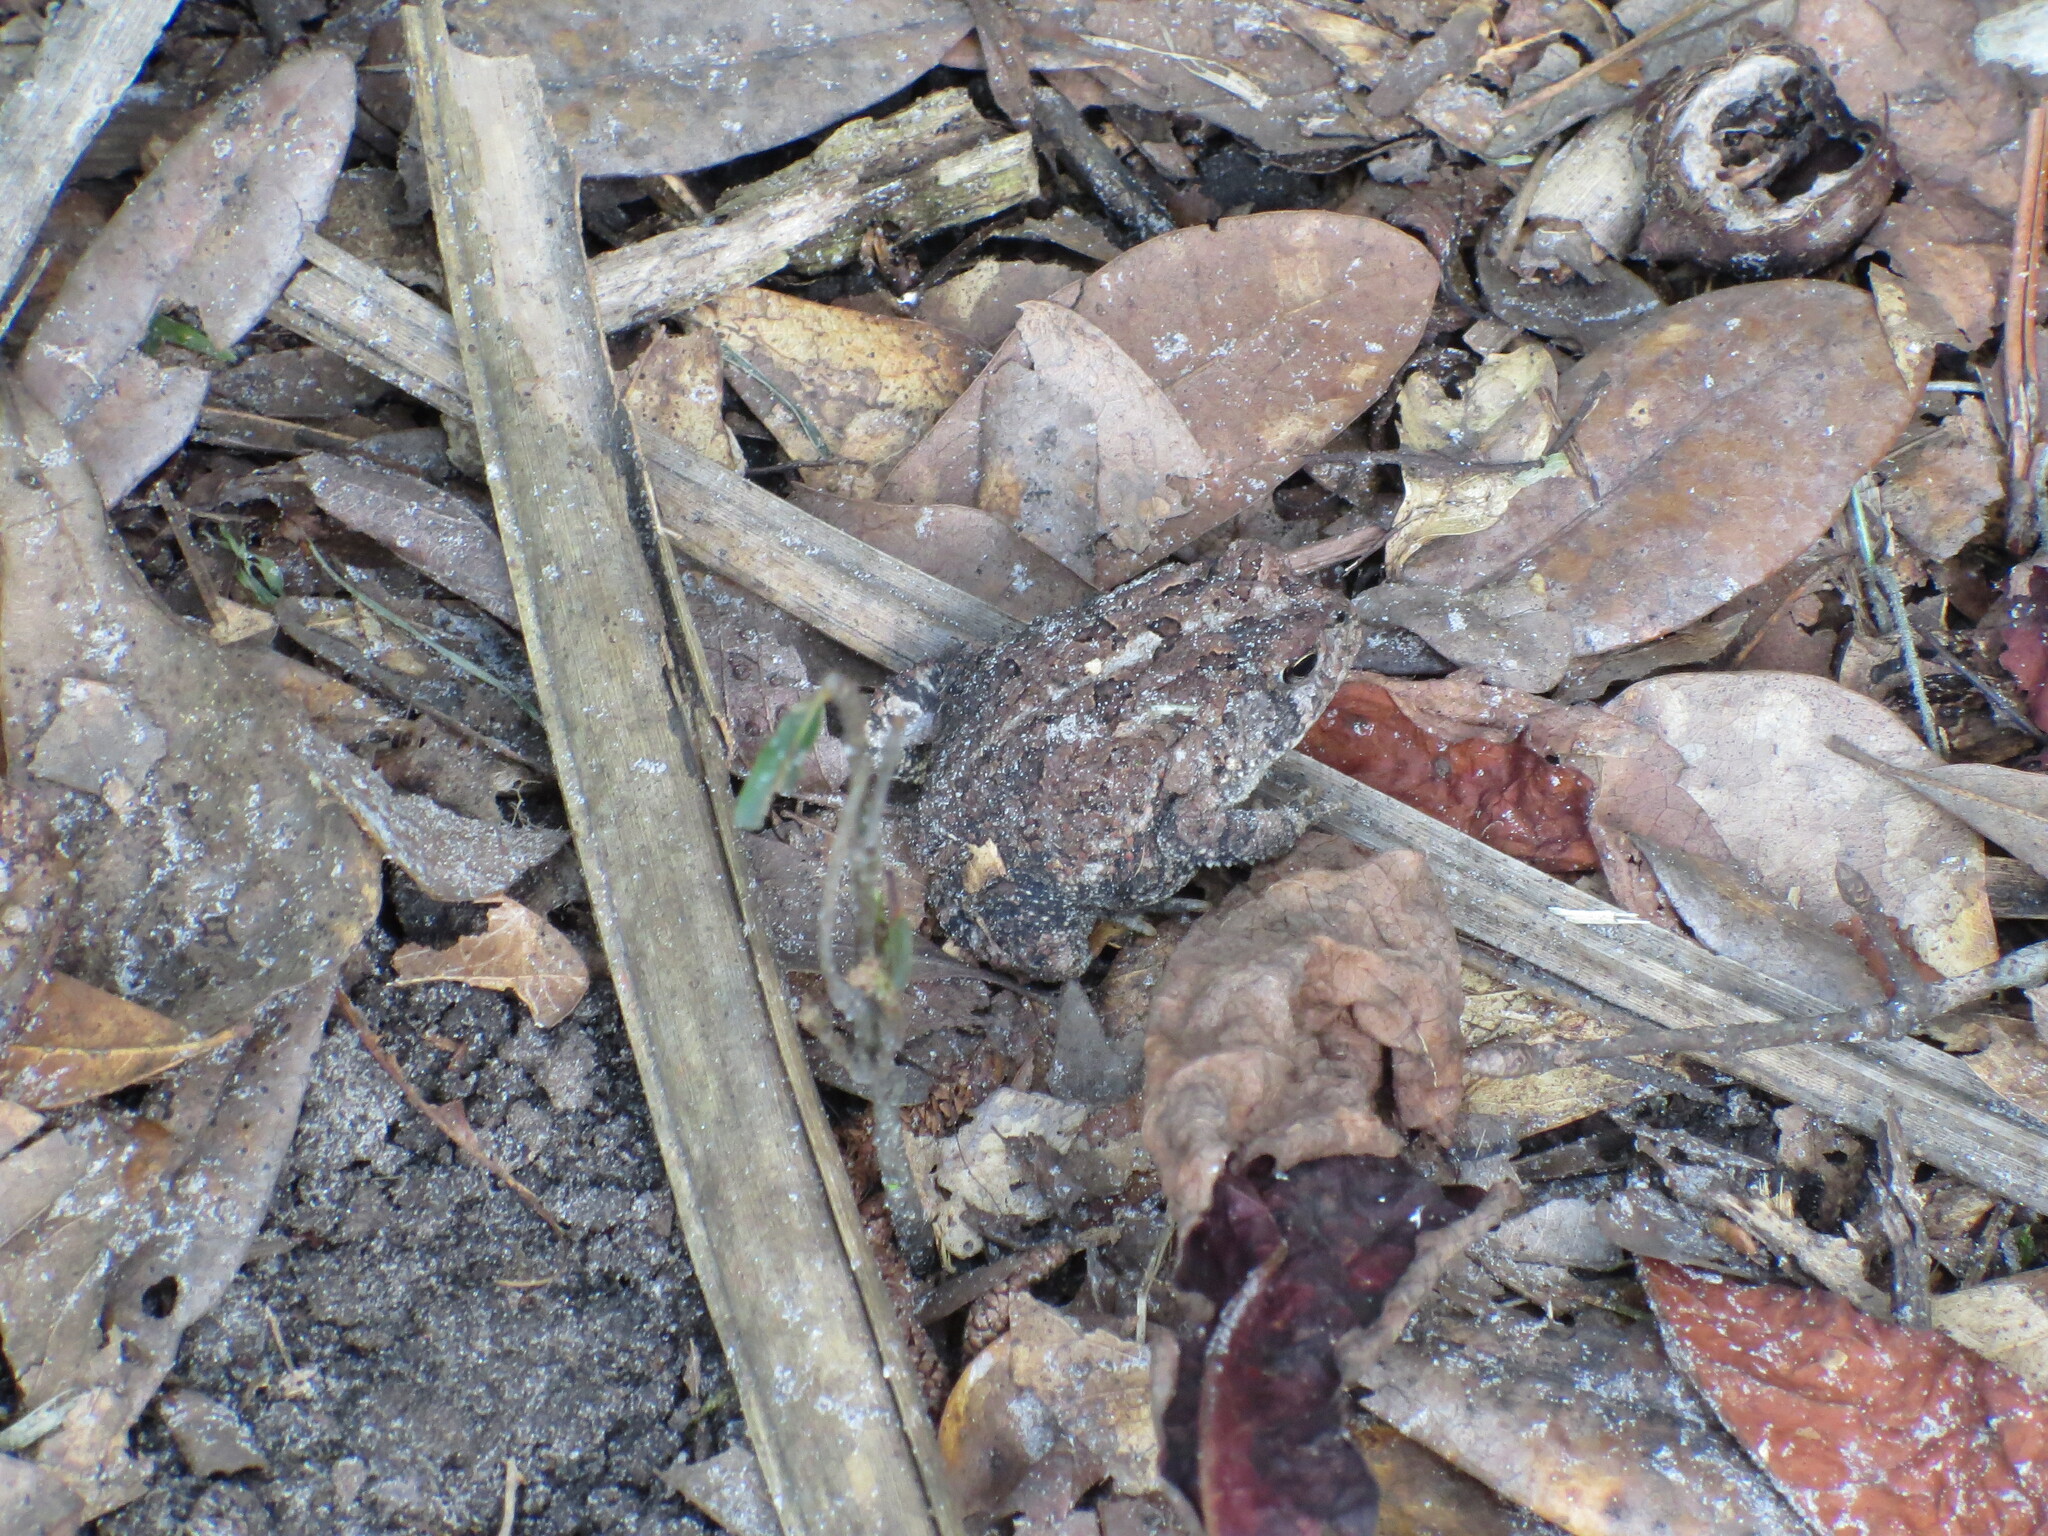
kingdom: Animalia
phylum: Chordata
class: Amphibia
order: Anura
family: Bufonidae
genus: Anaxyrus
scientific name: Anaxyrus terrestris
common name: Southern toad
